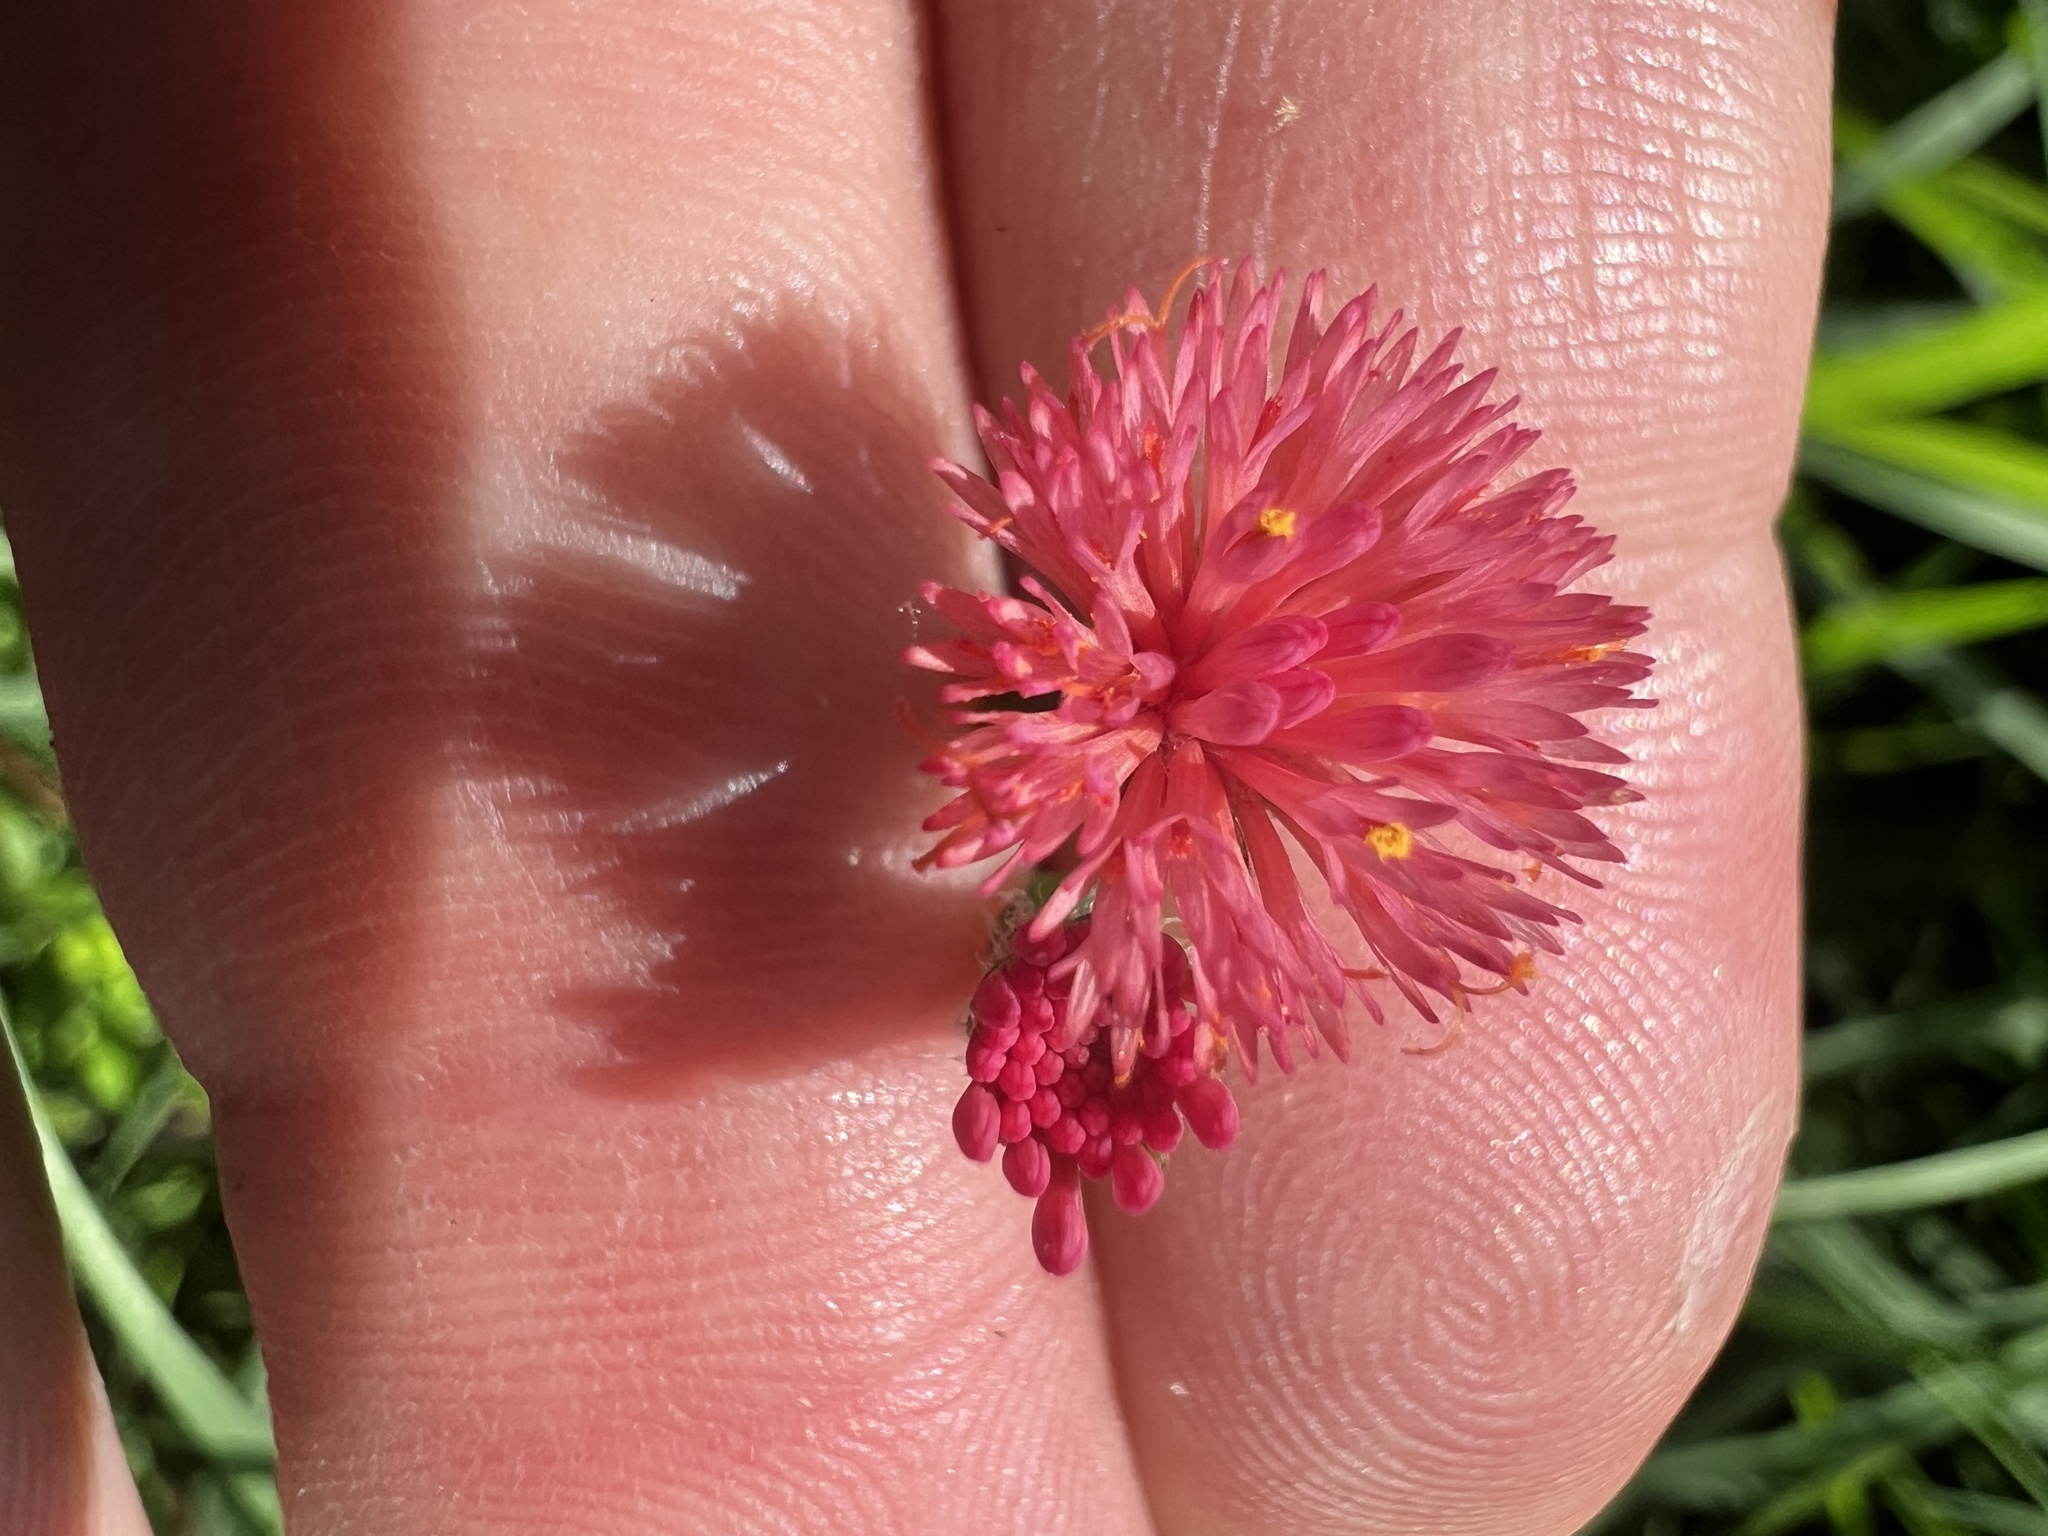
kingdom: Plantae
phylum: Tracheophyta
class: Magnoliopsida
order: Asterales
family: Asteraceae
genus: Emilia
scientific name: Emilia fosbergii
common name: Florida tasselflower
